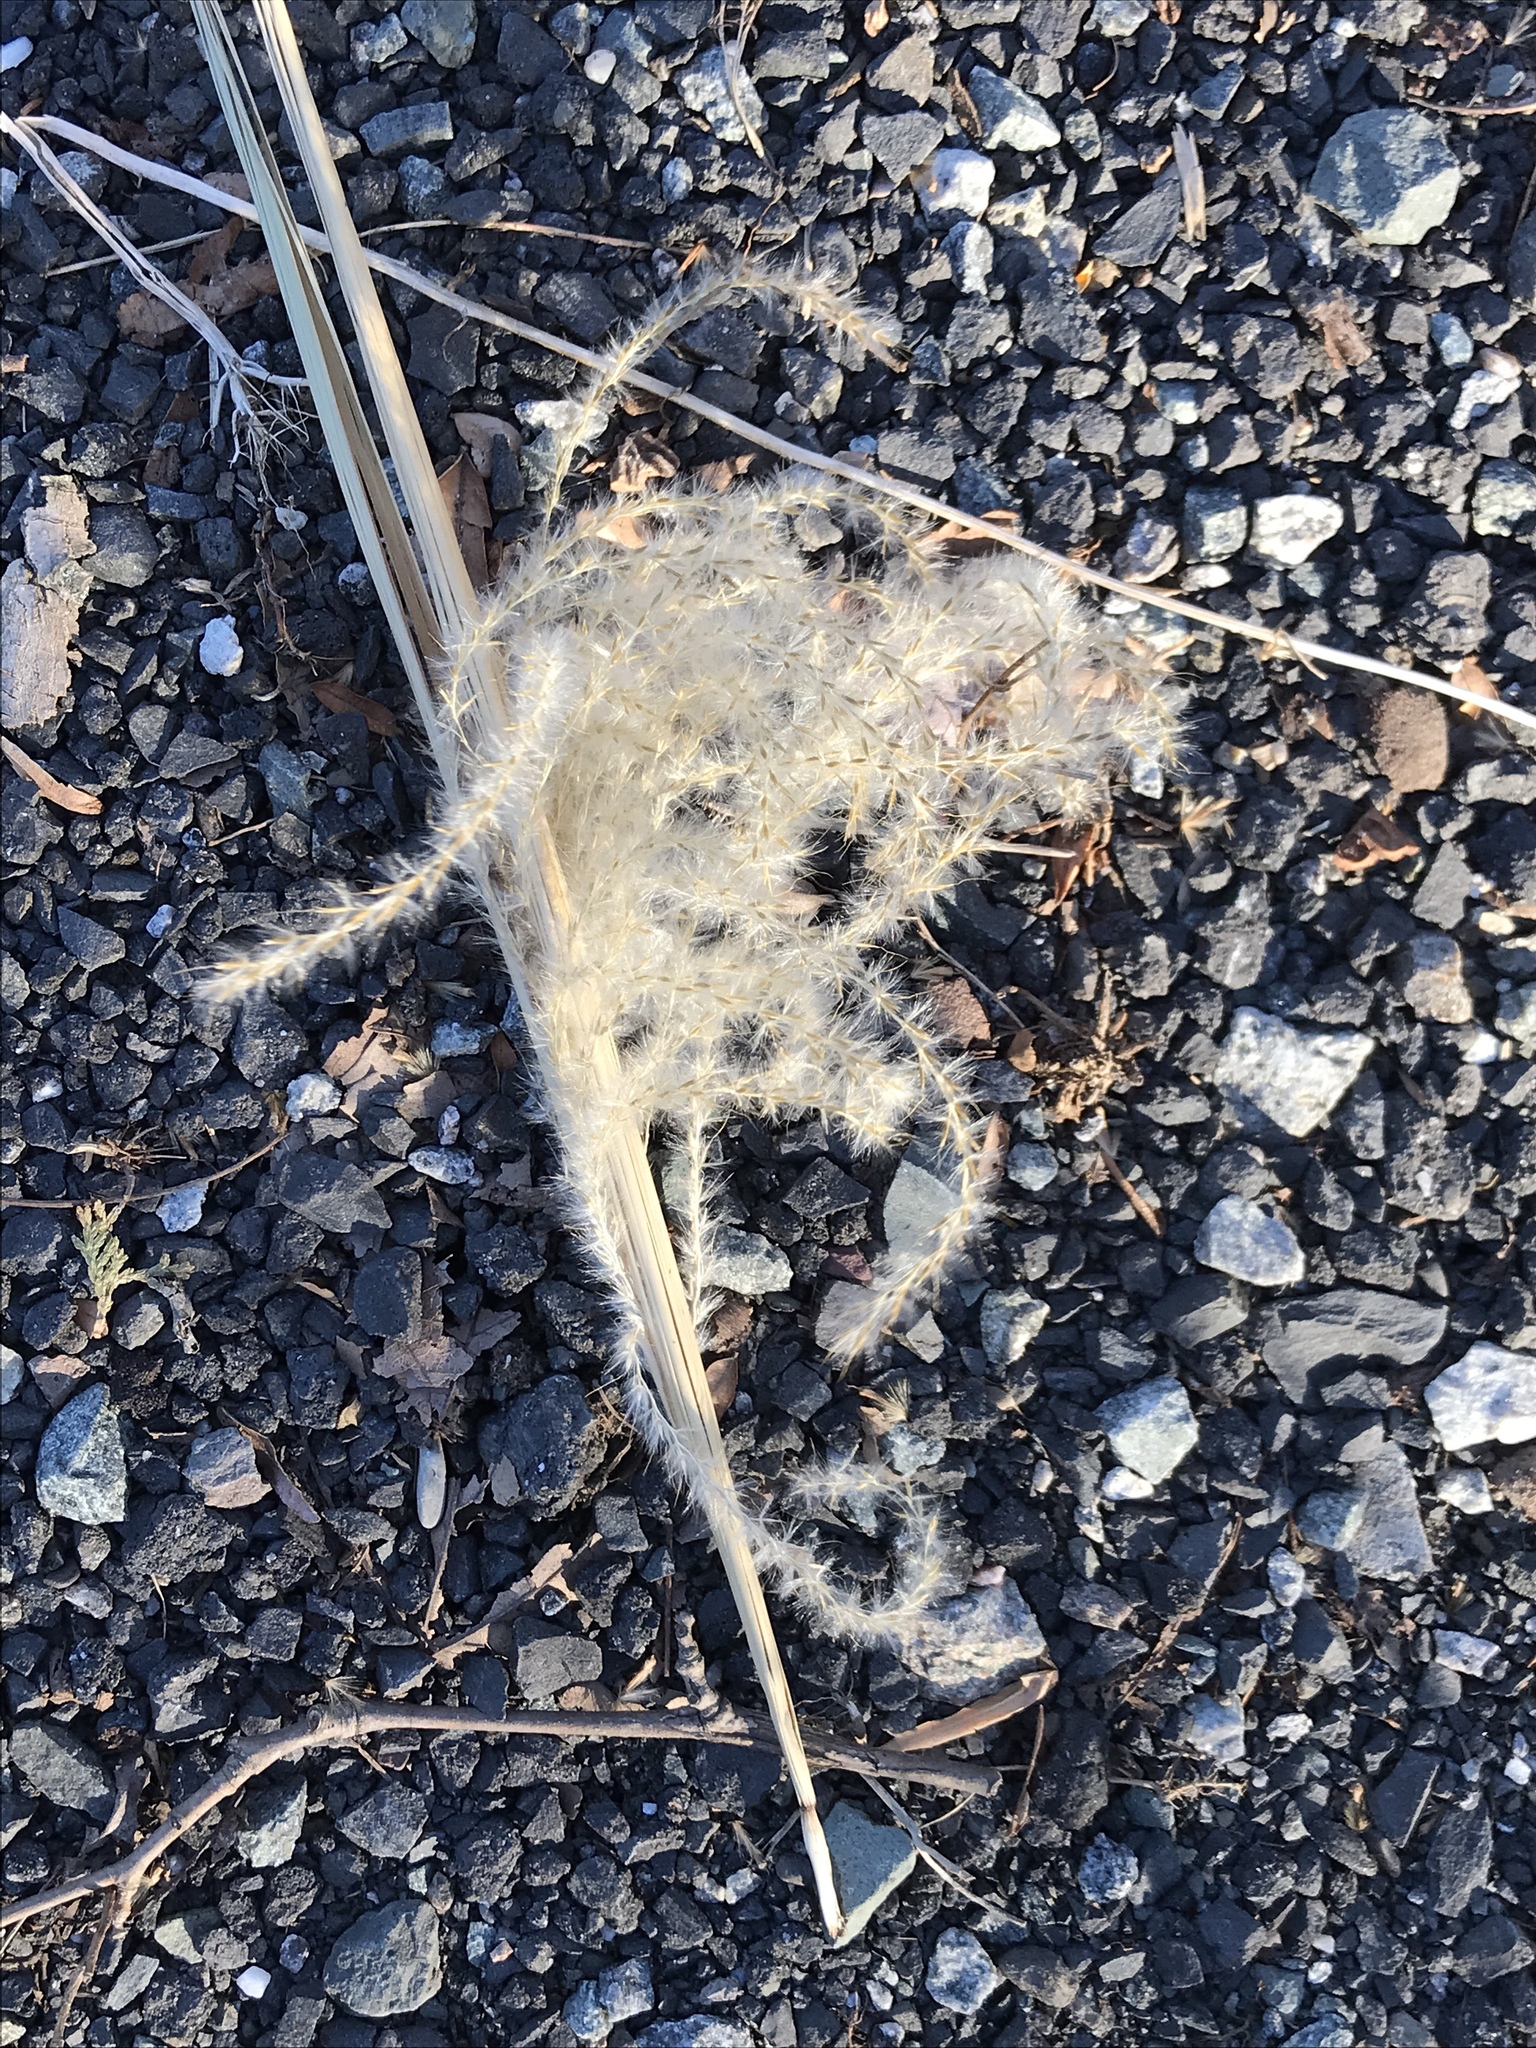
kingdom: Plantae
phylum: Tracheophyta
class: Liliopsida
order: Poales
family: Poaceae
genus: Miscanthus
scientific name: Miscanthus sinensis
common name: Chinese silvergrass
